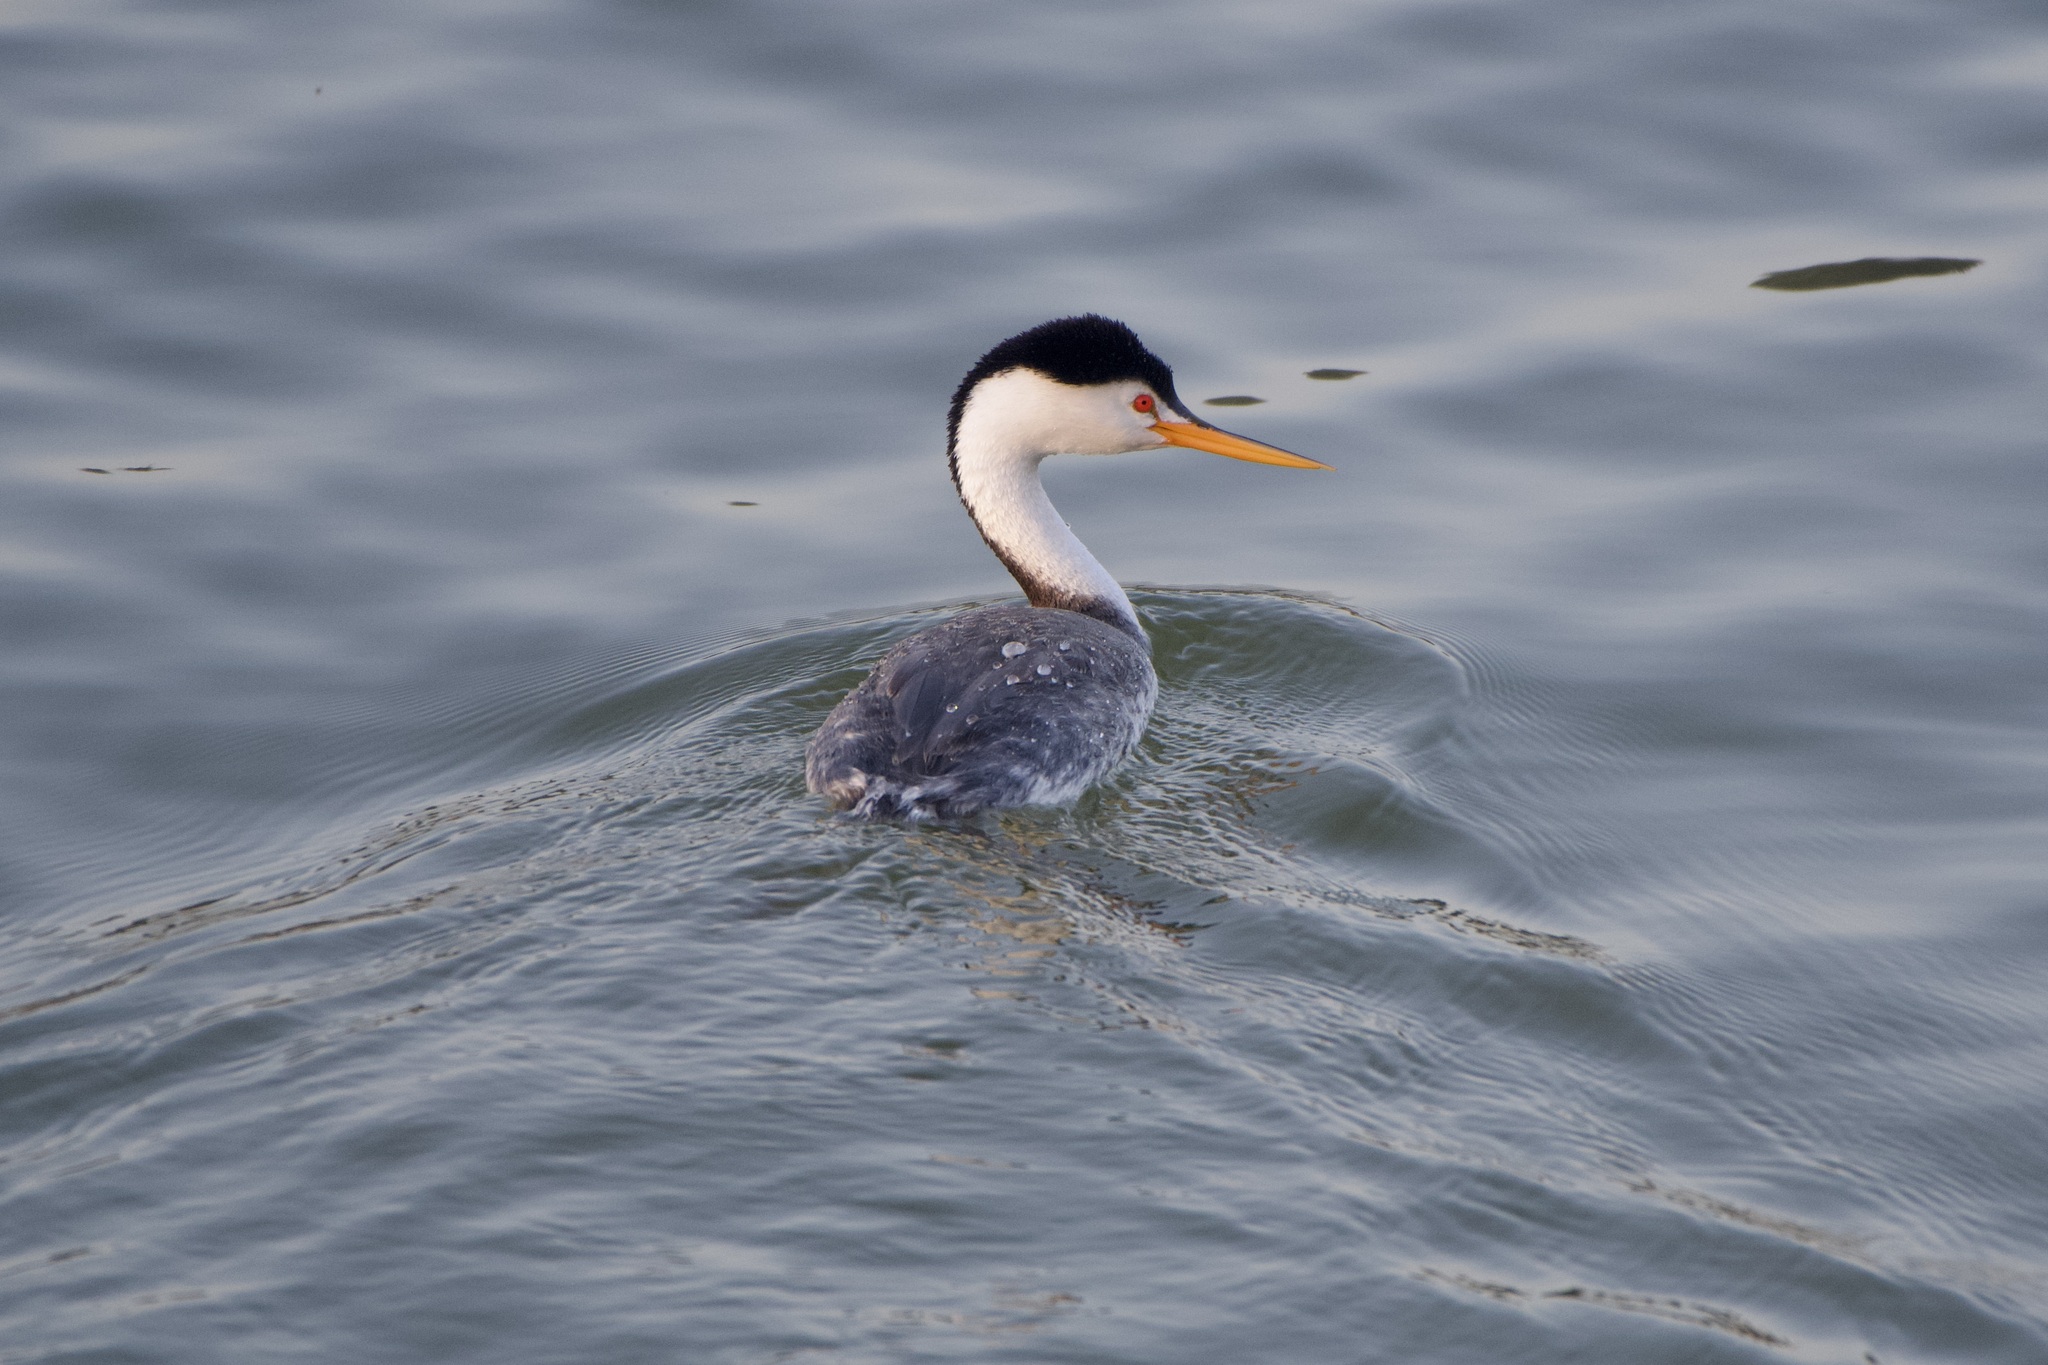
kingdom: Animalia
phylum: Chordata
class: Aves
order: Podicipediformes
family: Podicipedidae
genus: Aechmophorus
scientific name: Aechmophorus clarkii
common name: Clark's grebe
